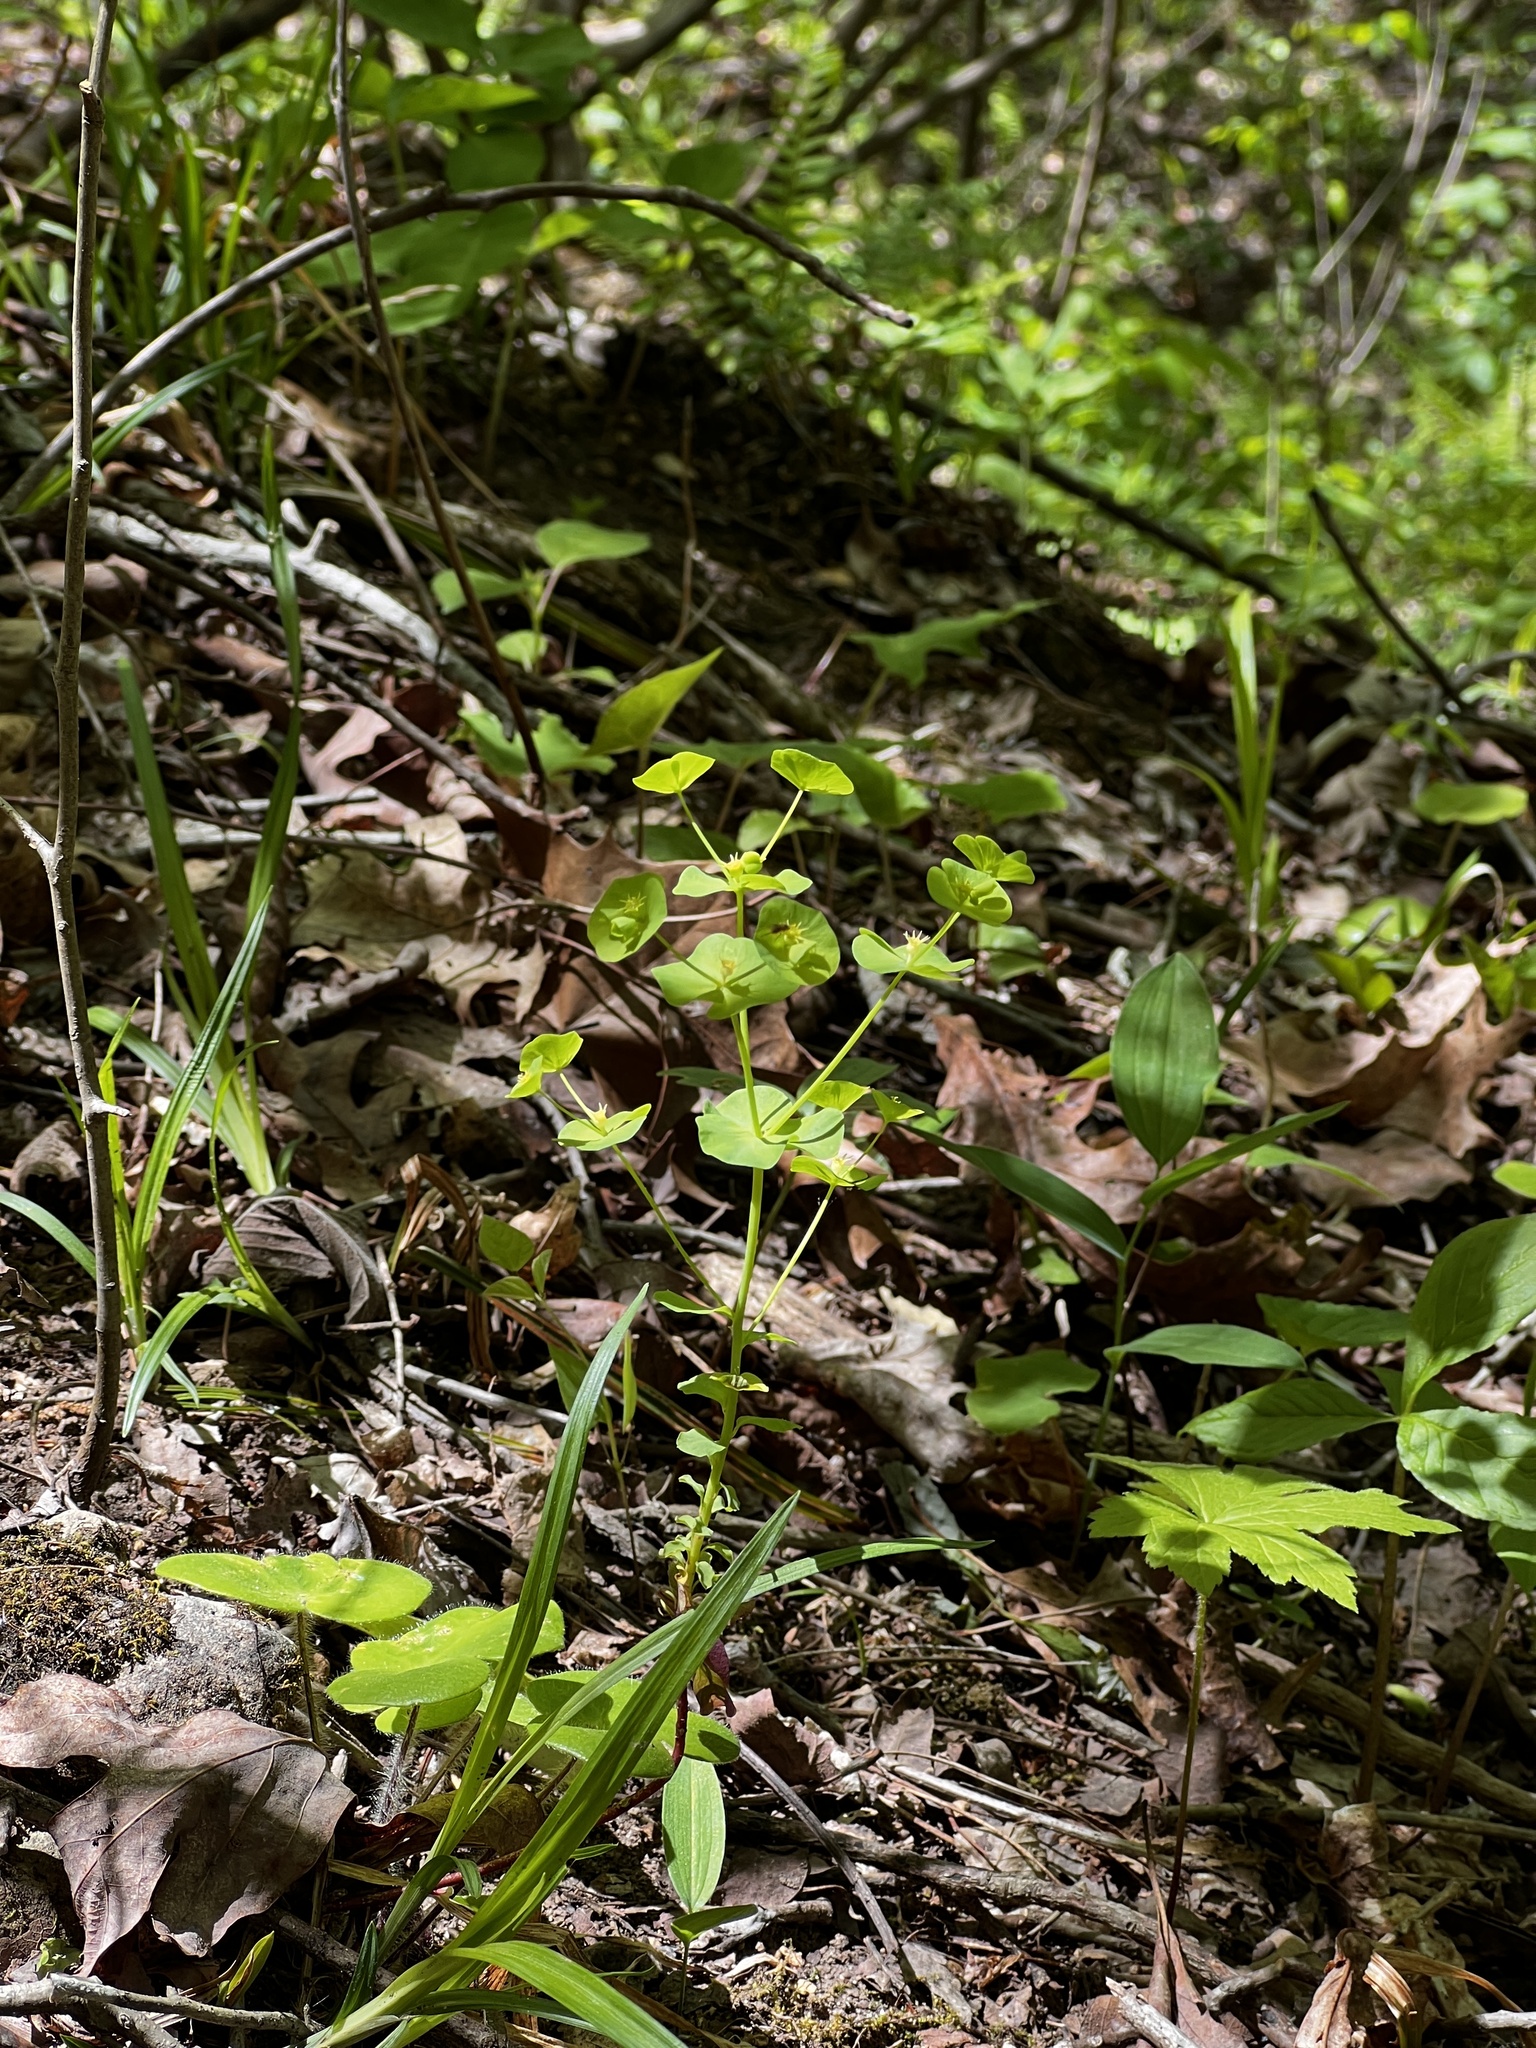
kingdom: Plantae
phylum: Tracheophyta
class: Magnoliopsida
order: Malpighiales
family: Euphorbiaceae
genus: Euphorbia
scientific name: Euphorbia commutata
